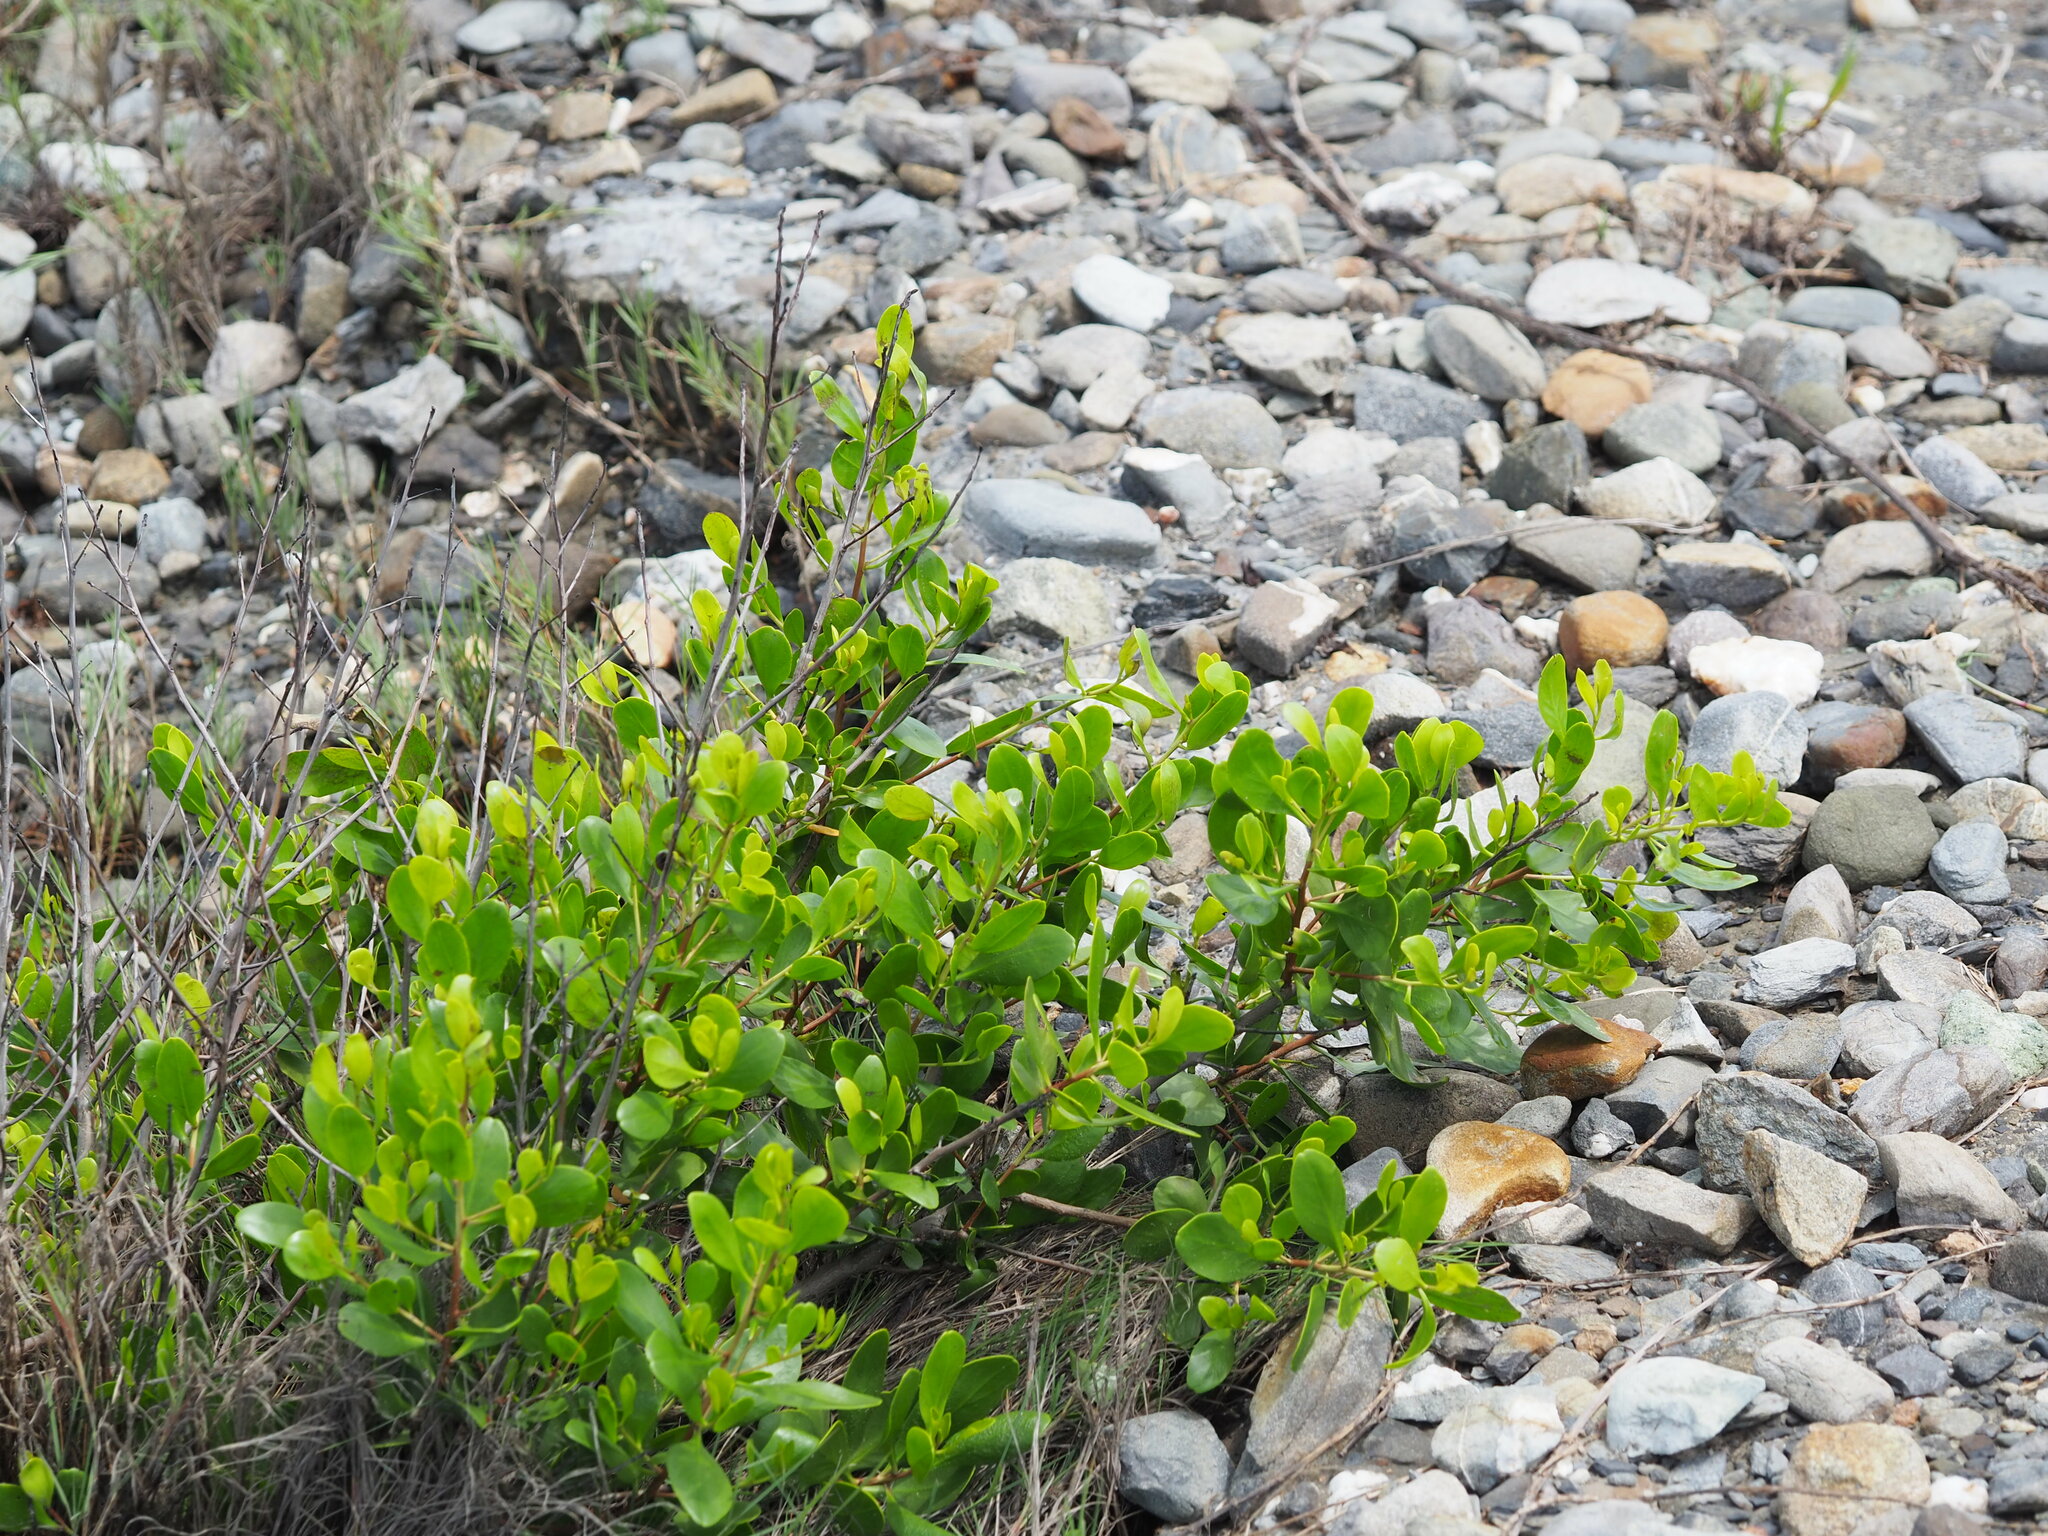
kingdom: Plantae
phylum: Tracheophyta
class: Magnoliopsida
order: Myrtales
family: Combretaceae
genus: Lumnitzera
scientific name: Lumnitzera racemosa
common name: White-flowered black mangrove
